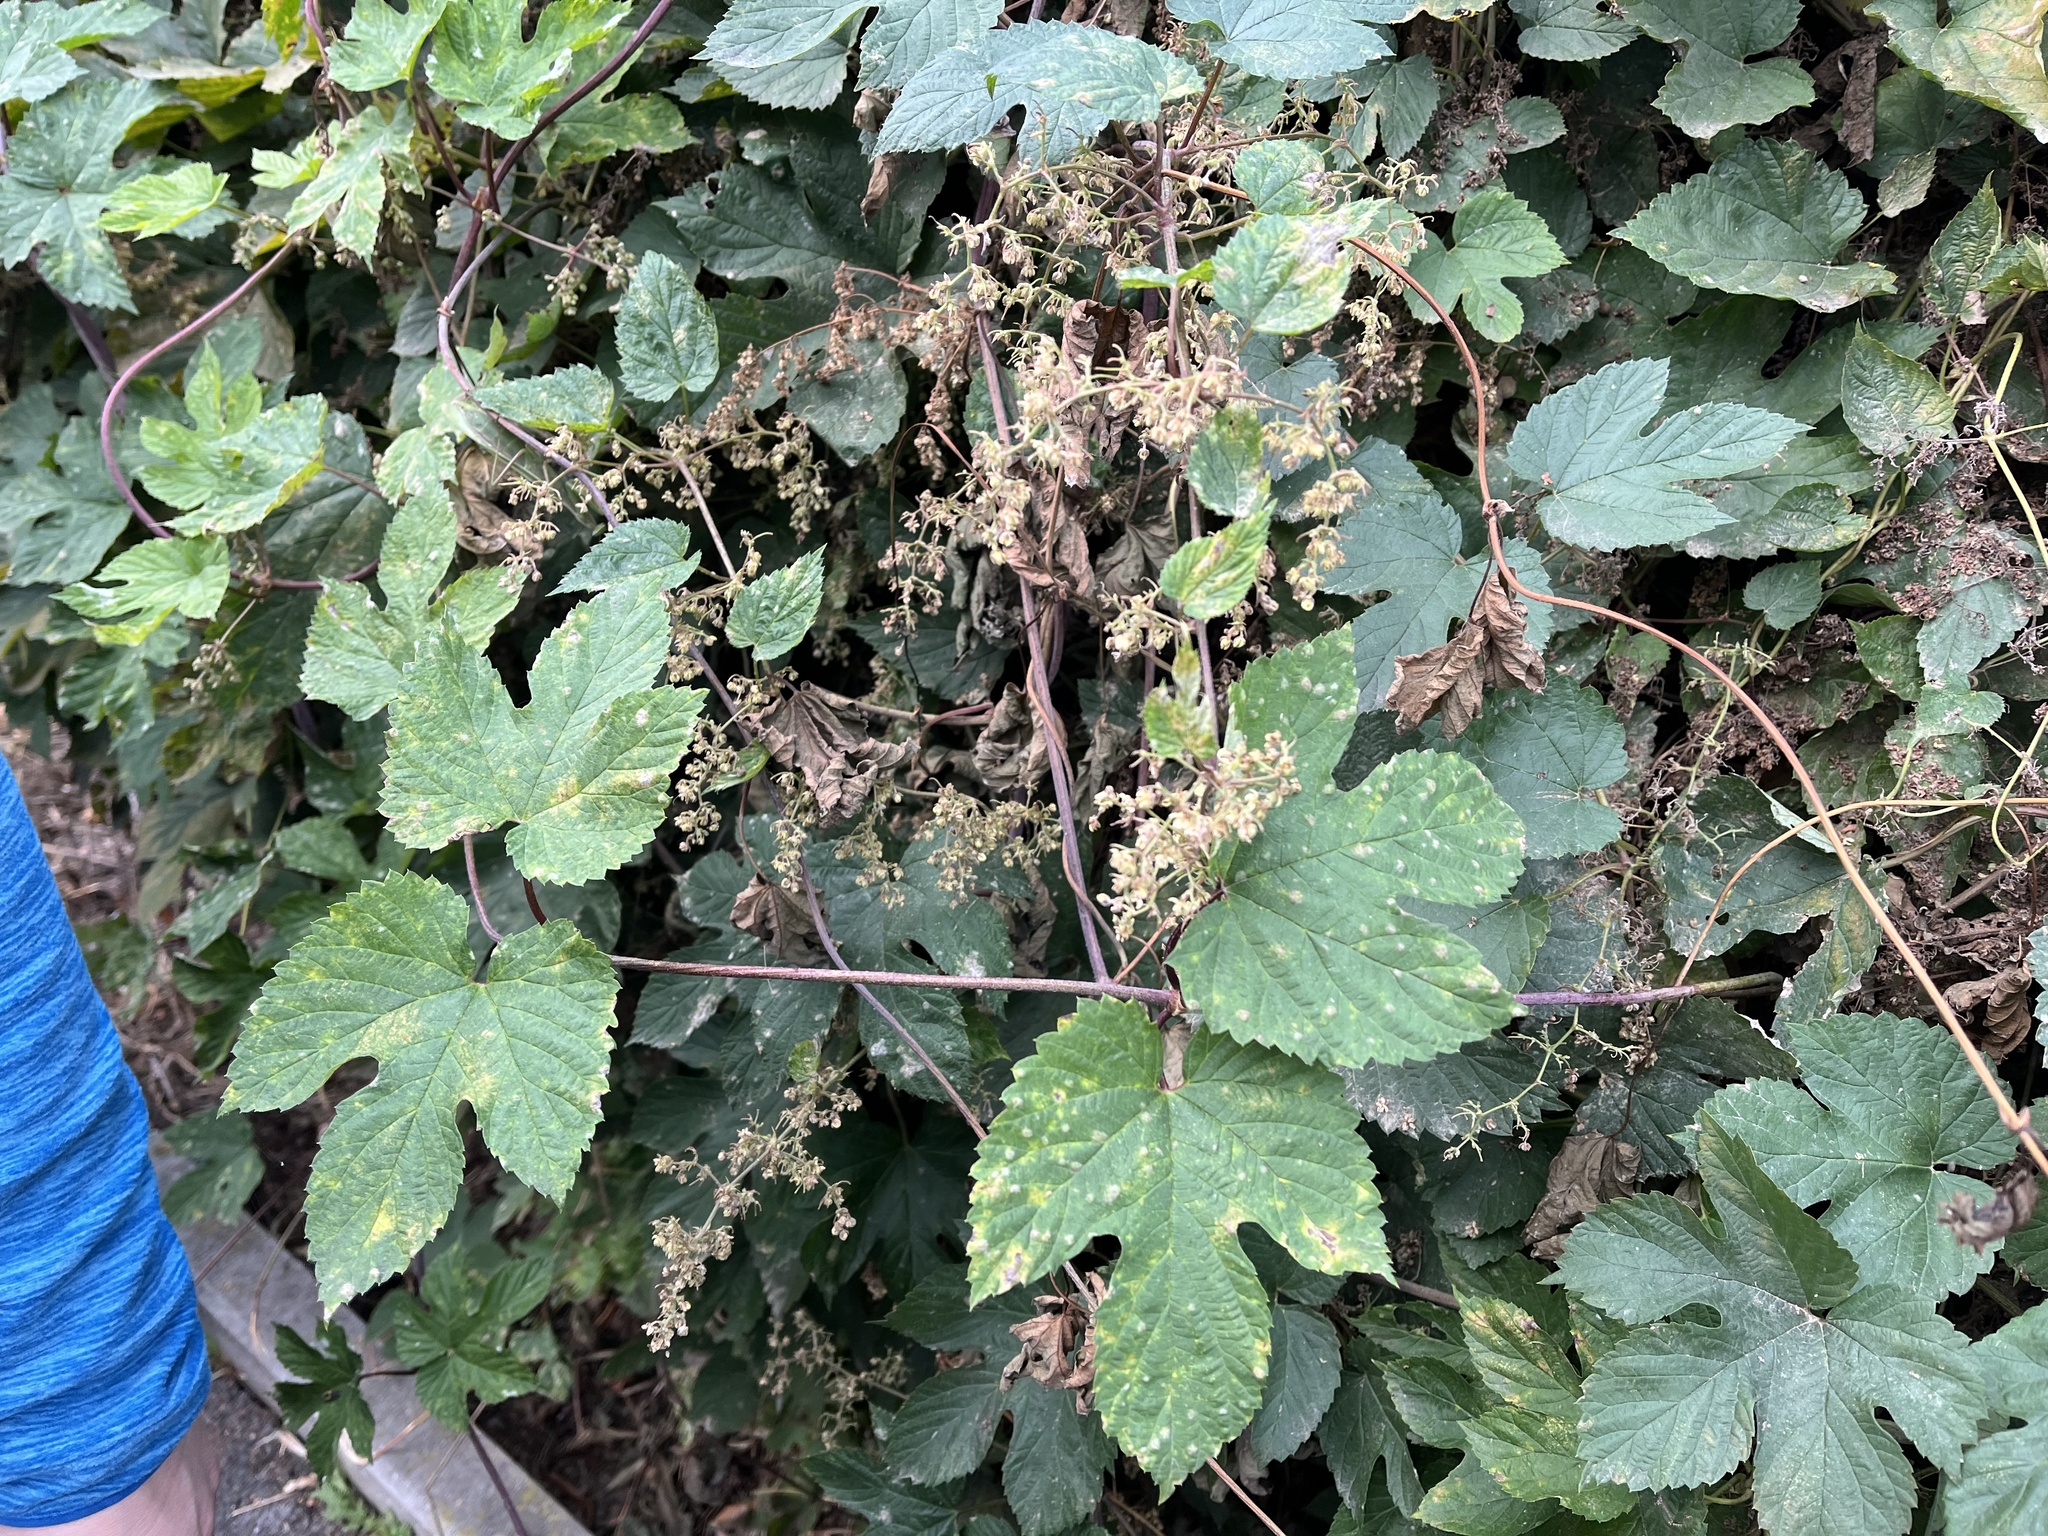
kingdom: Plantae
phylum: Tracheophyta
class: Magnoliopsida
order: Rosales
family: Cannabaceae
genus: Humulus
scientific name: Humulus lupulus
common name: Hop
